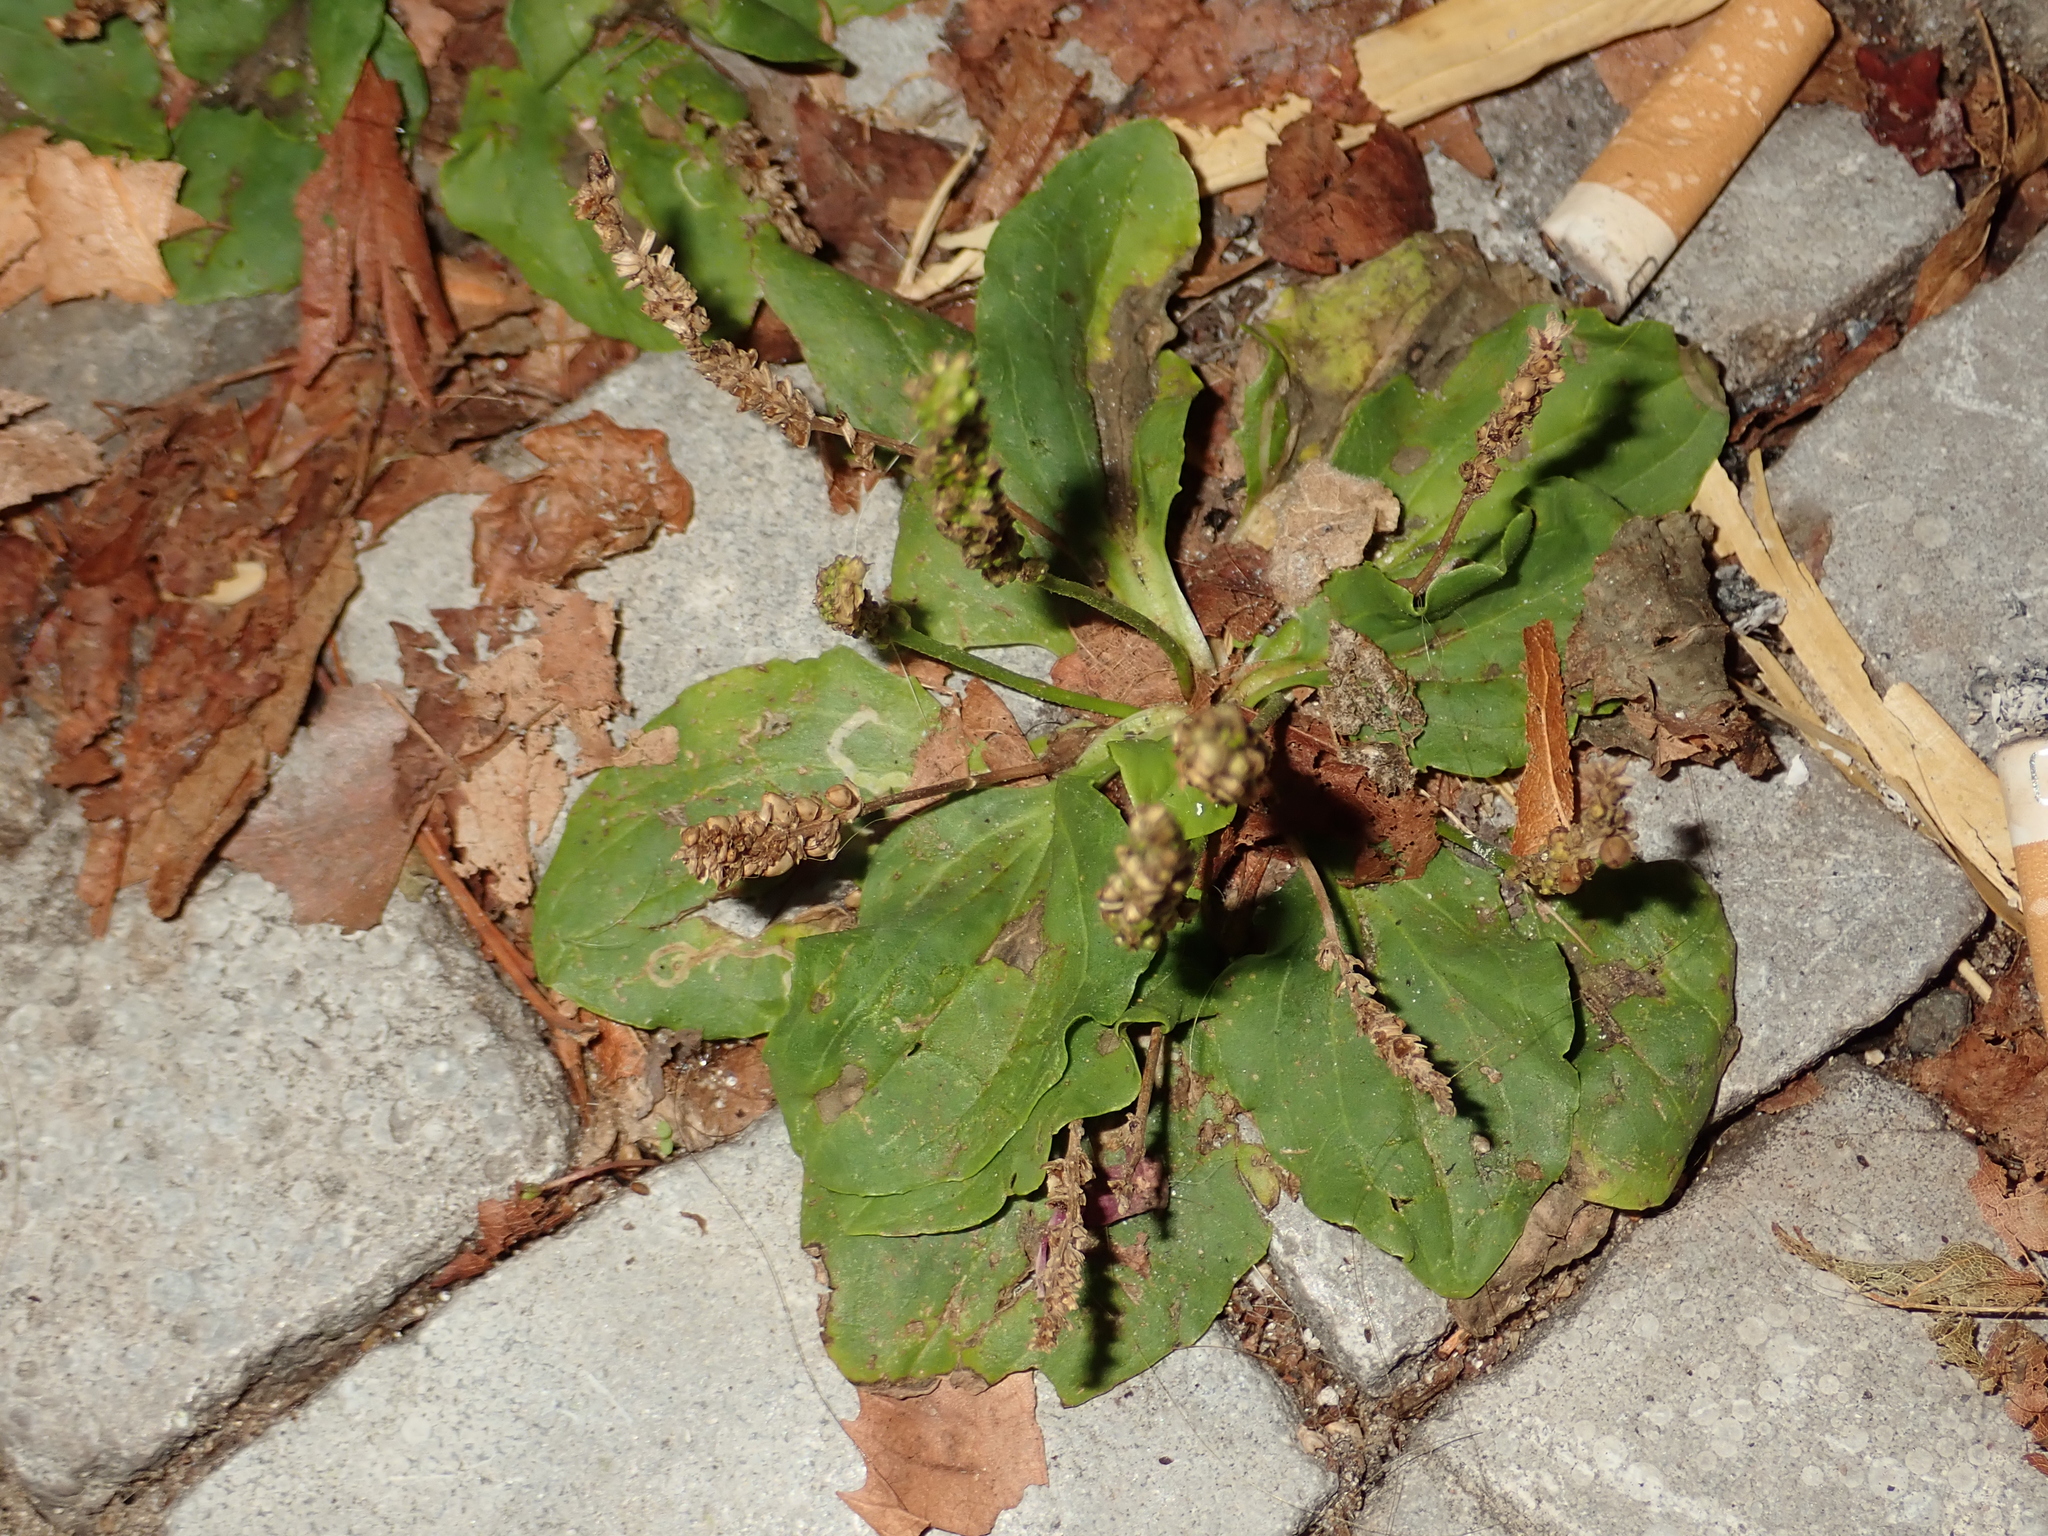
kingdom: Plantae
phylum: Tracheophyta
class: Magnoliopsida
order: Lamiales
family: Plantaginaceae
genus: Plantago
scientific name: Plantago major
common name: Common plantain
